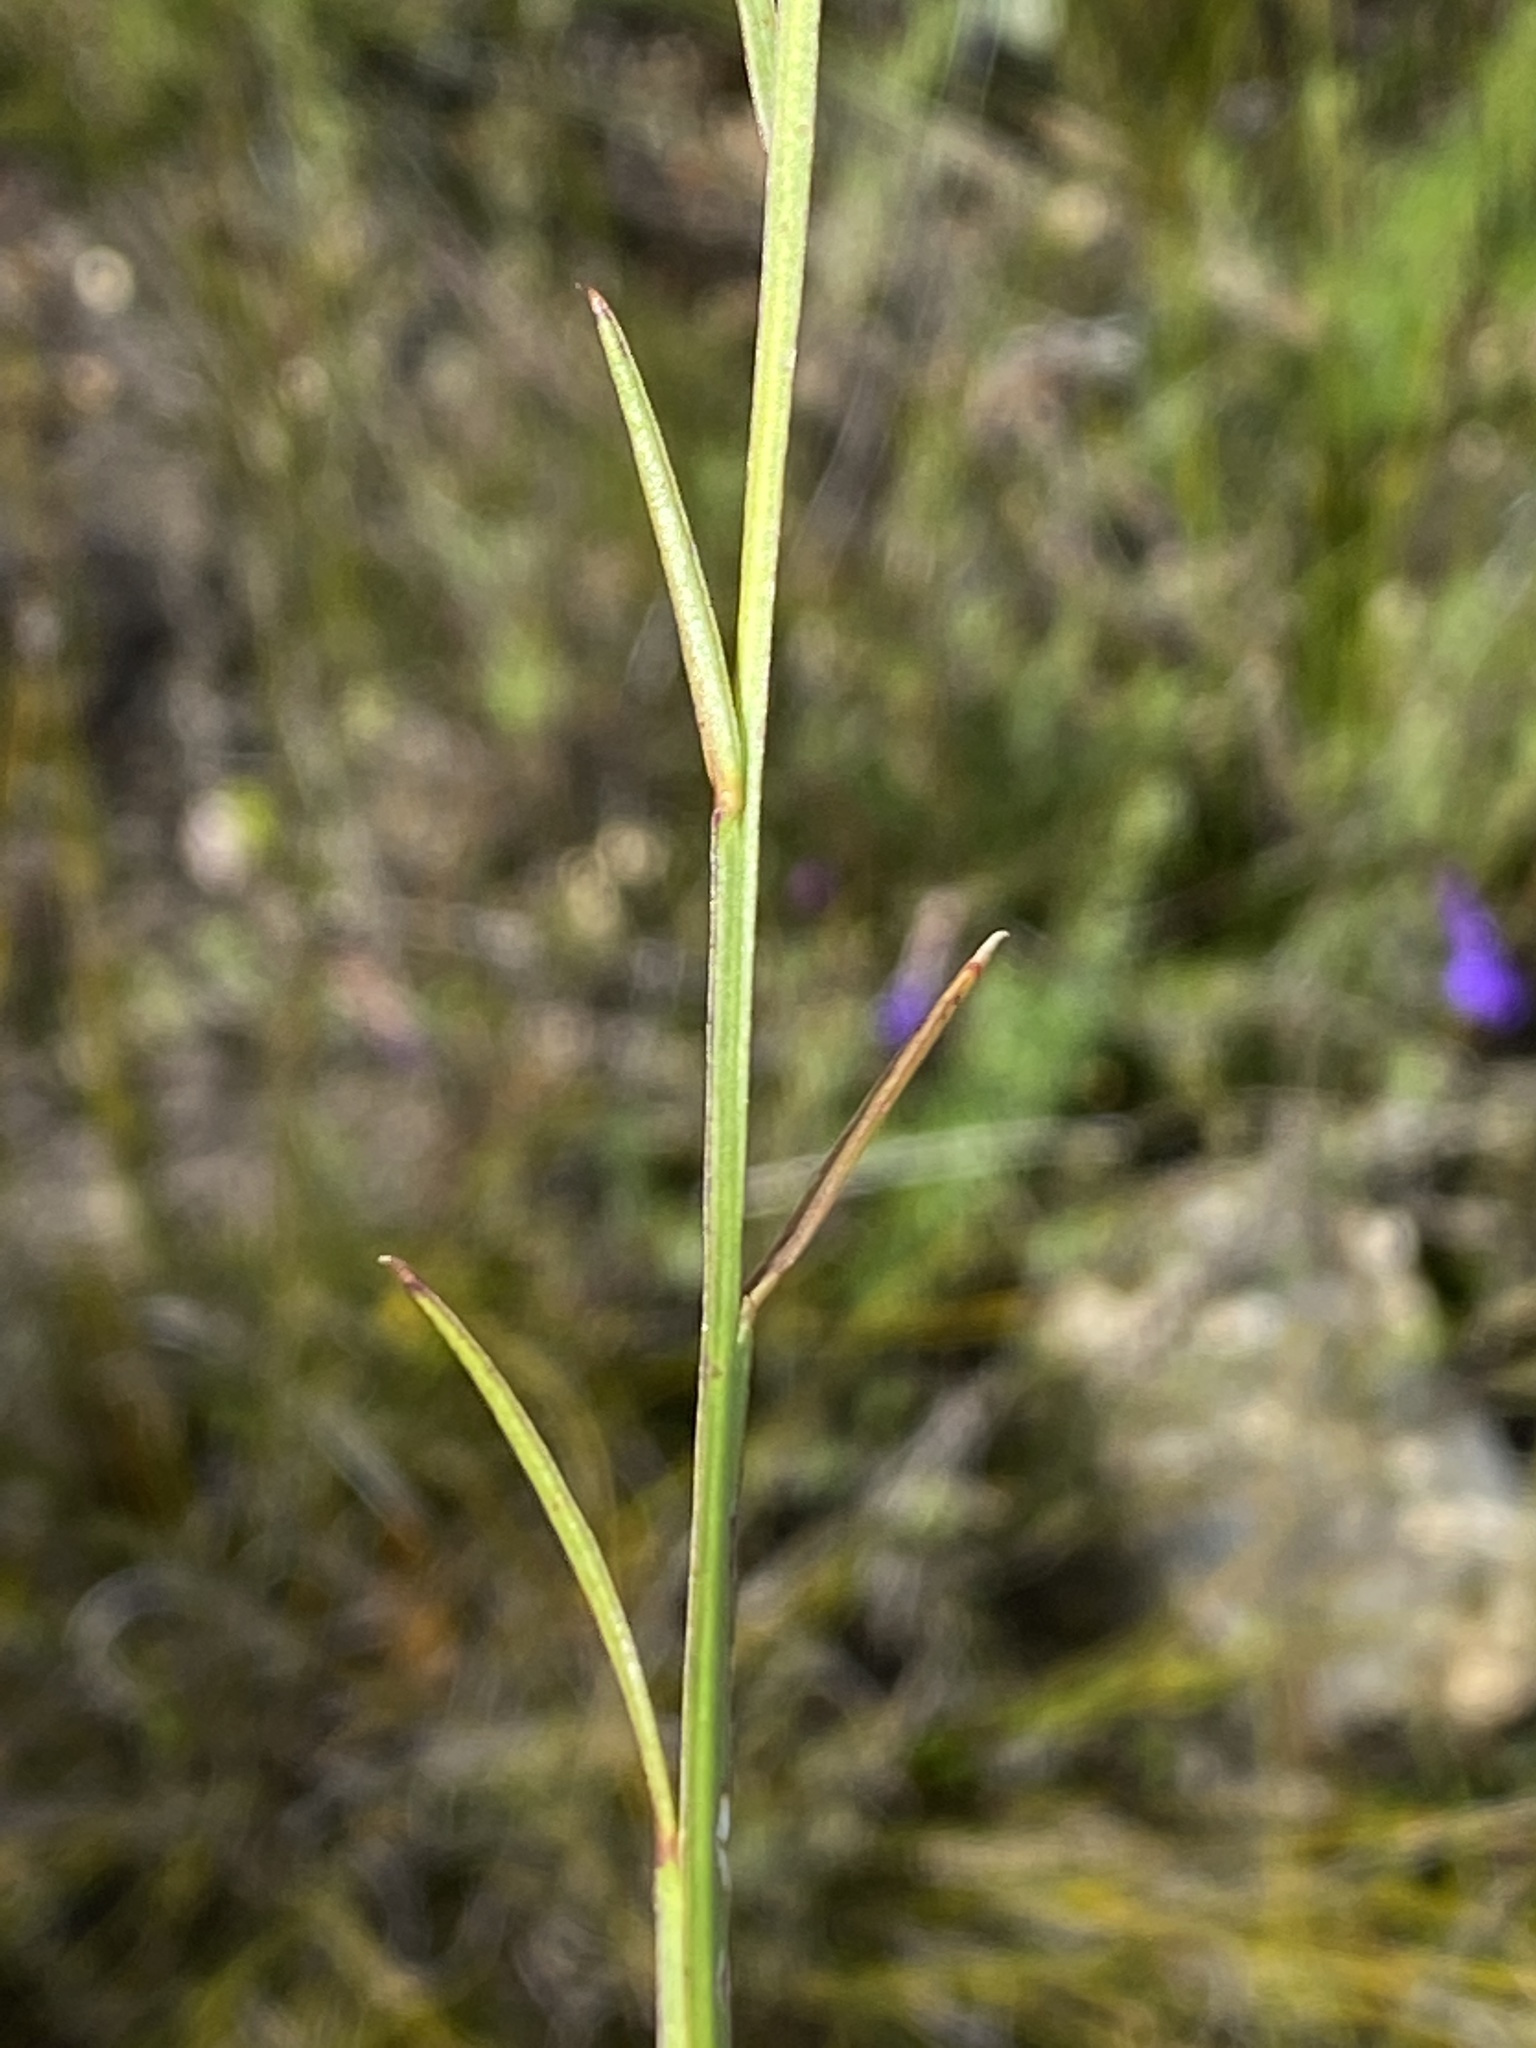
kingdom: Plantae
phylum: Tracheophyta
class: Magnoliopsida
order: Fabales
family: Polygalaceae
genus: Polygala
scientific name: Polygala triquetra
